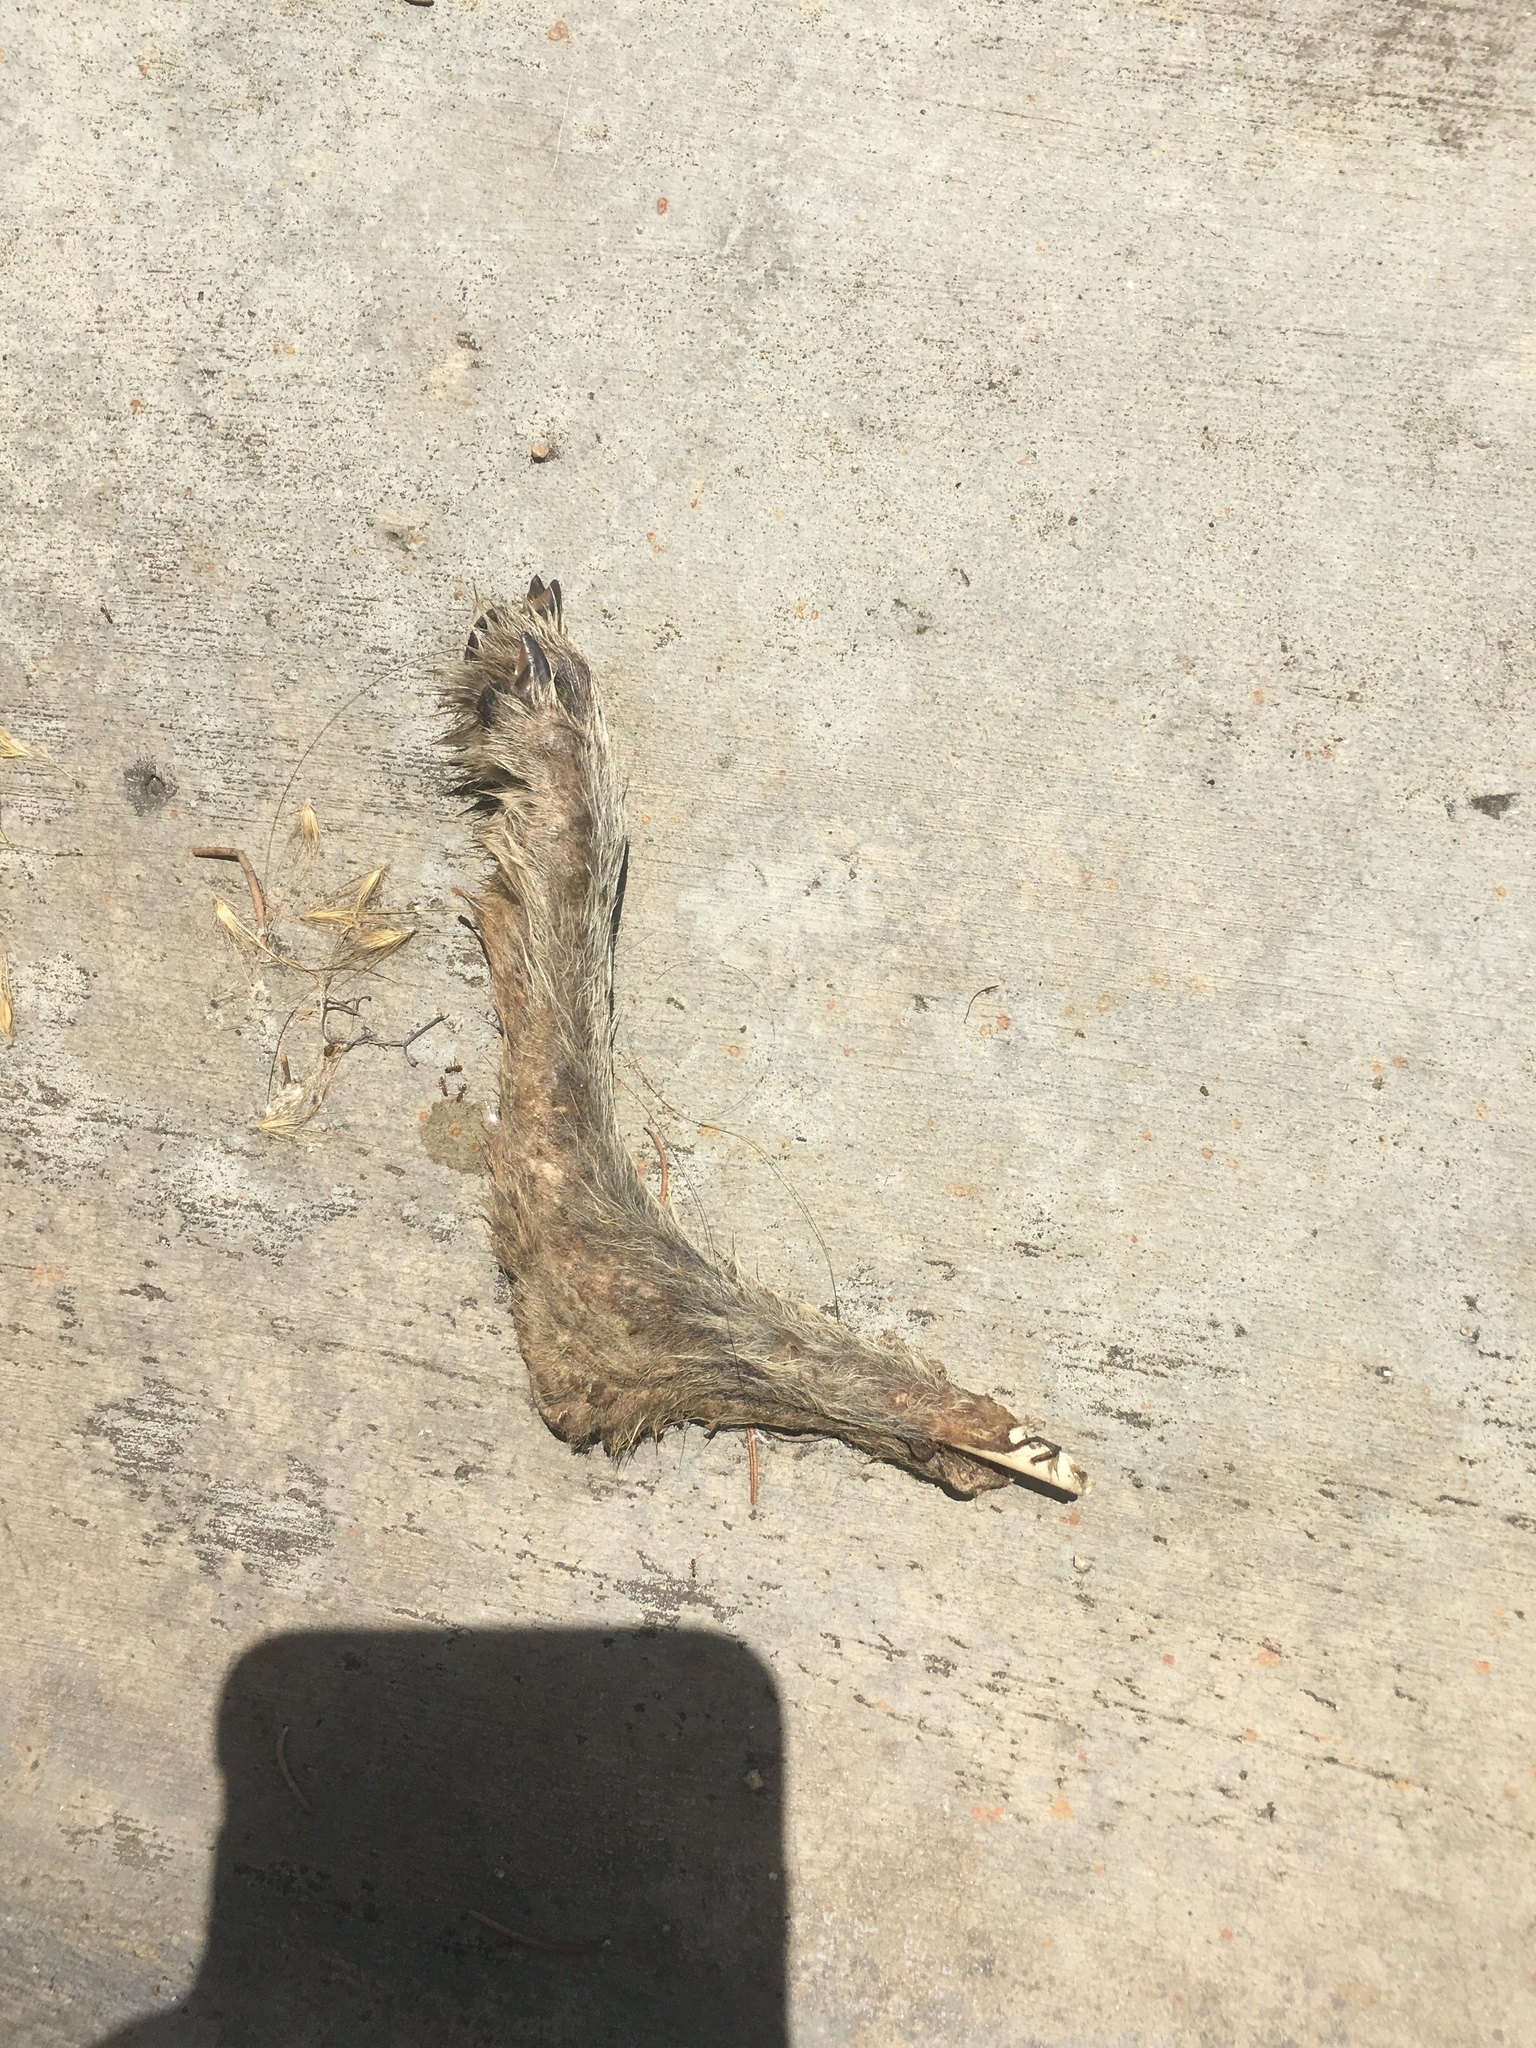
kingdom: Animalia
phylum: Chordata
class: Mammalia
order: Carnivora
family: Canidae
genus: Canis
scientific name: Canis latrans
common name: Coyote
